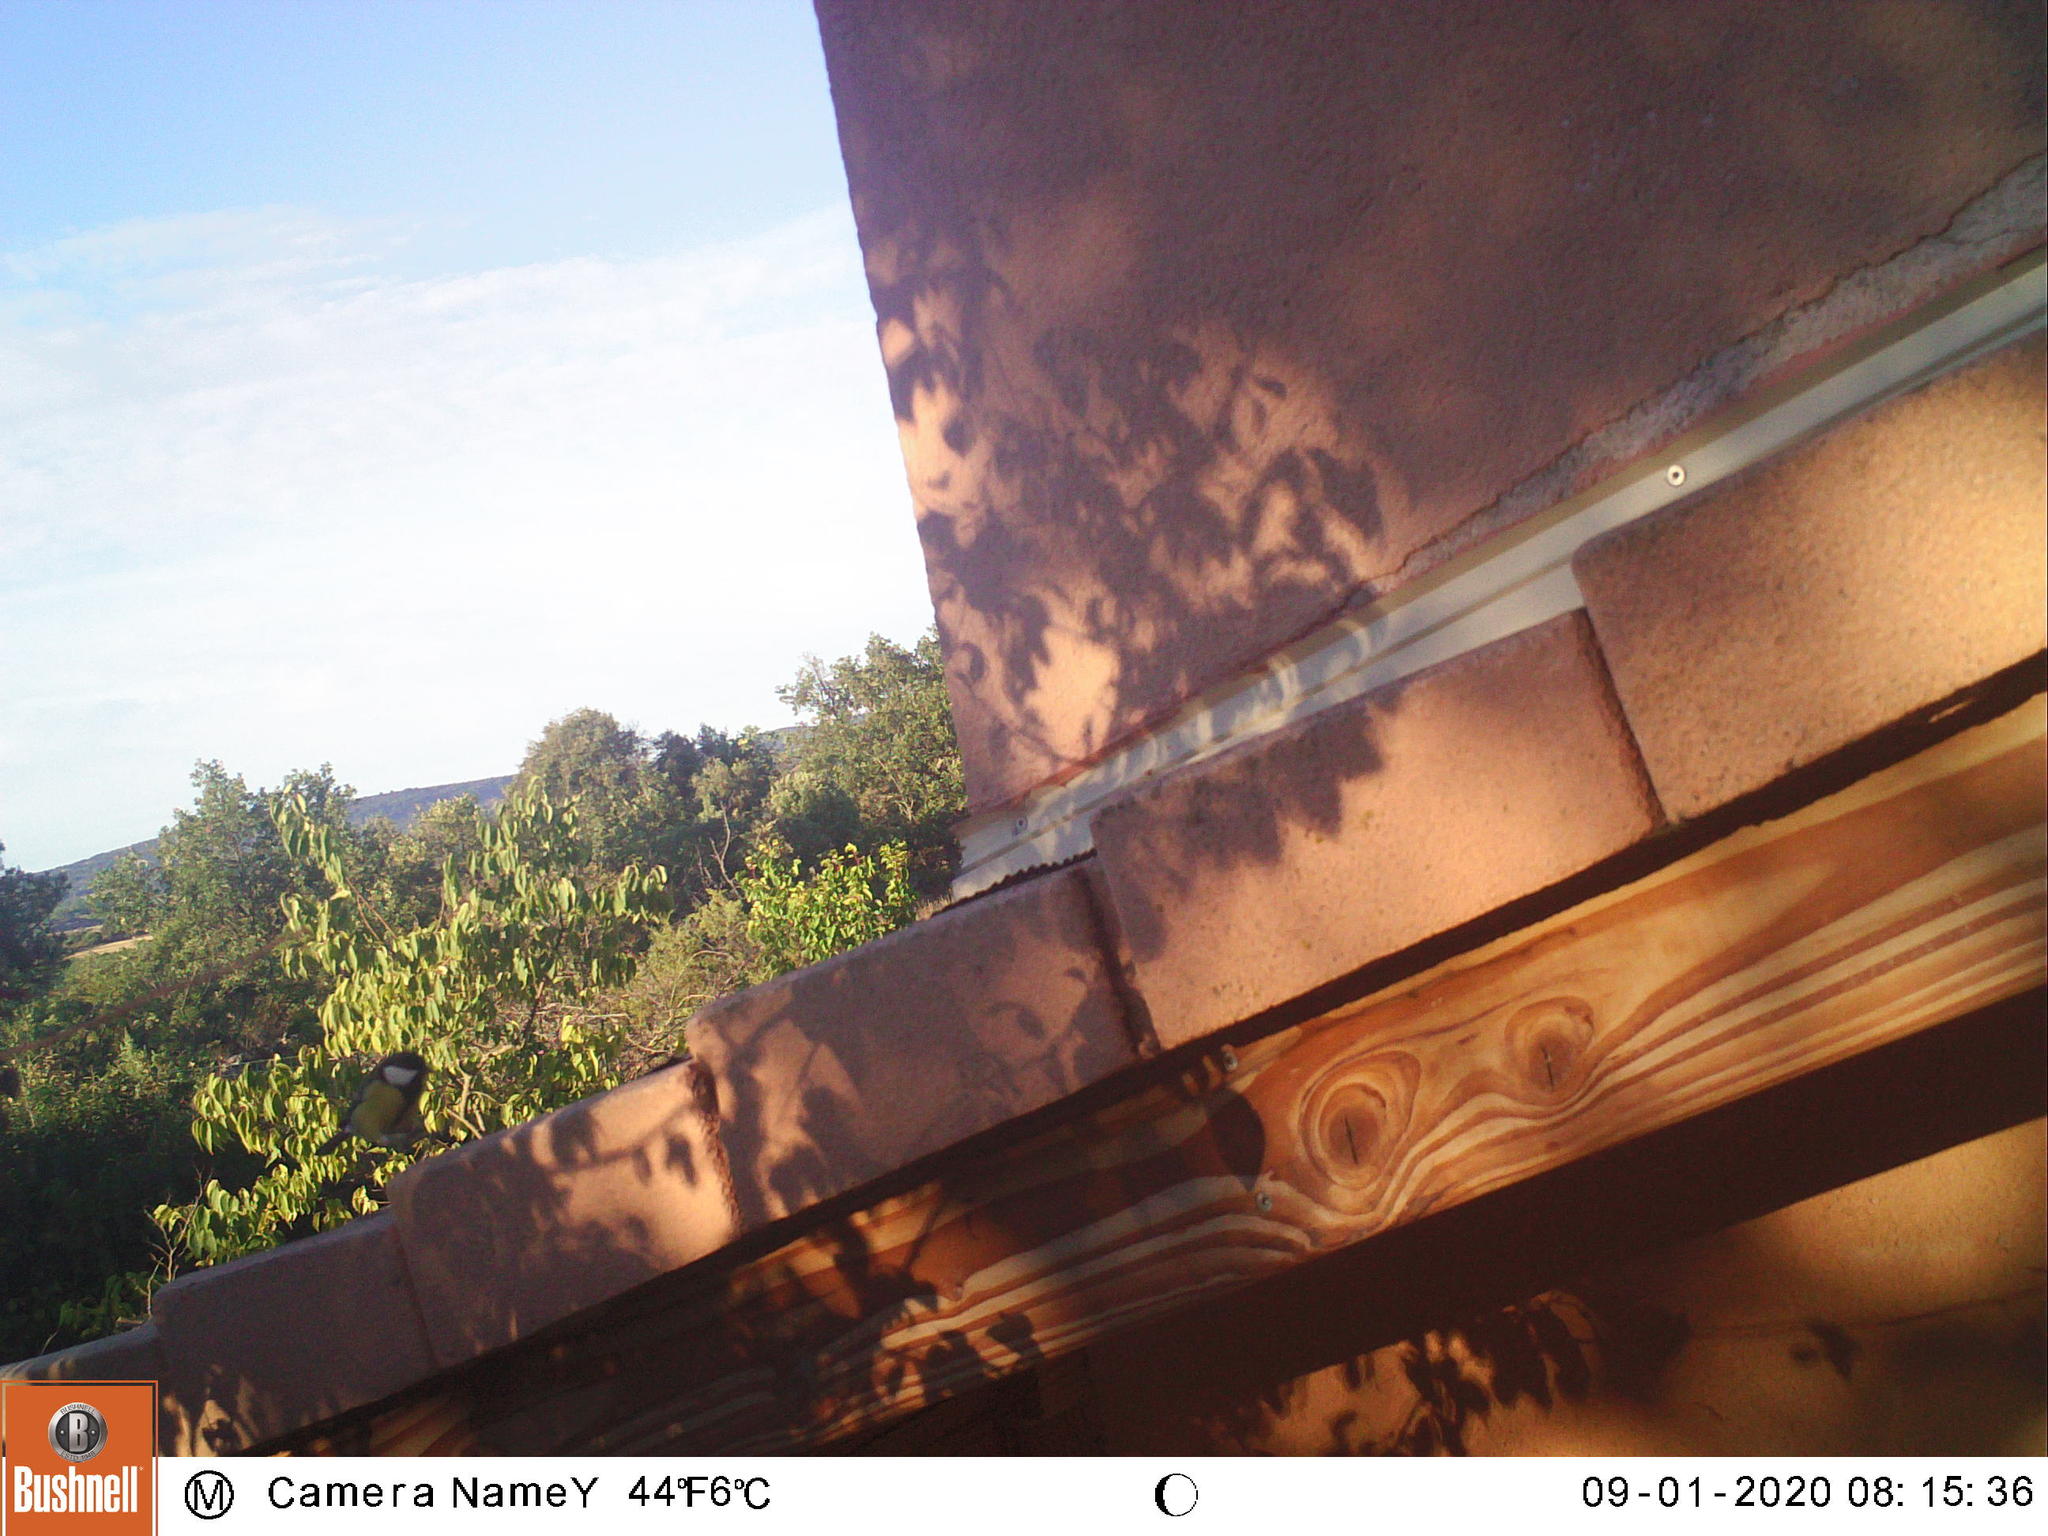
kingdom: Animalia
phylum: Chordata
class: Aves
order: Passeriformes
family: Paridae
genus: Parus
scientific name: Parus major
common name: Great tit
